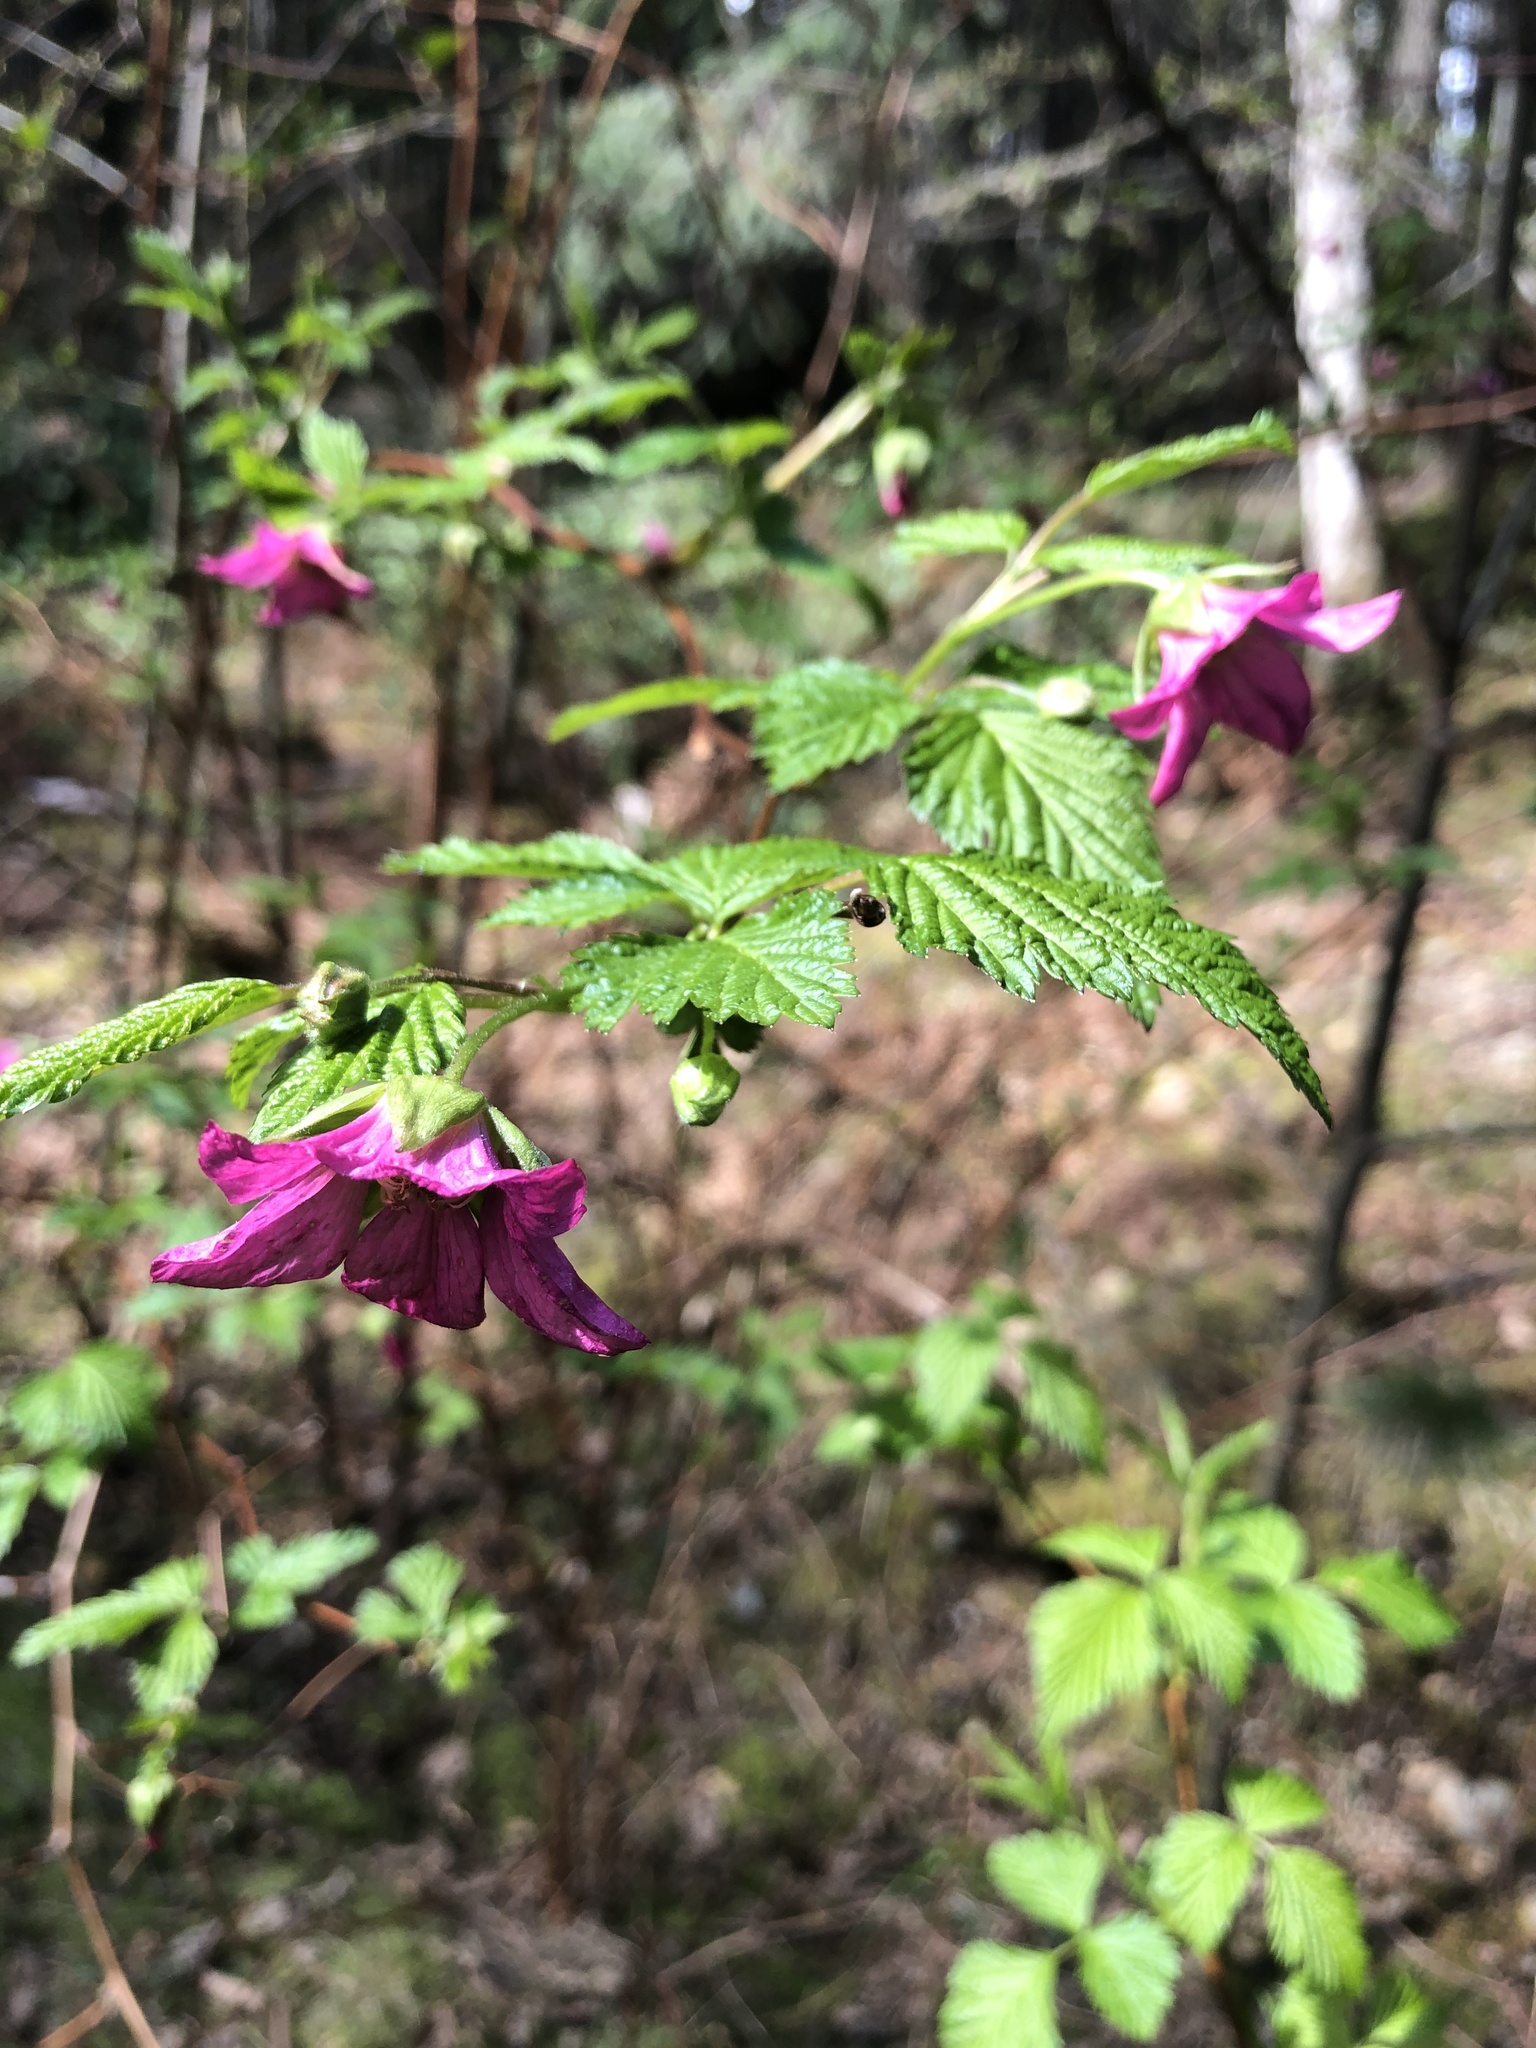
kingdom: Plantae
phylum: Tracheophyta
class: Magnoliopsida
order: Rosales
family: Rosaceae
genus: Rubus
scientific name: Rubus spectabilis
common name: Salmonberry
